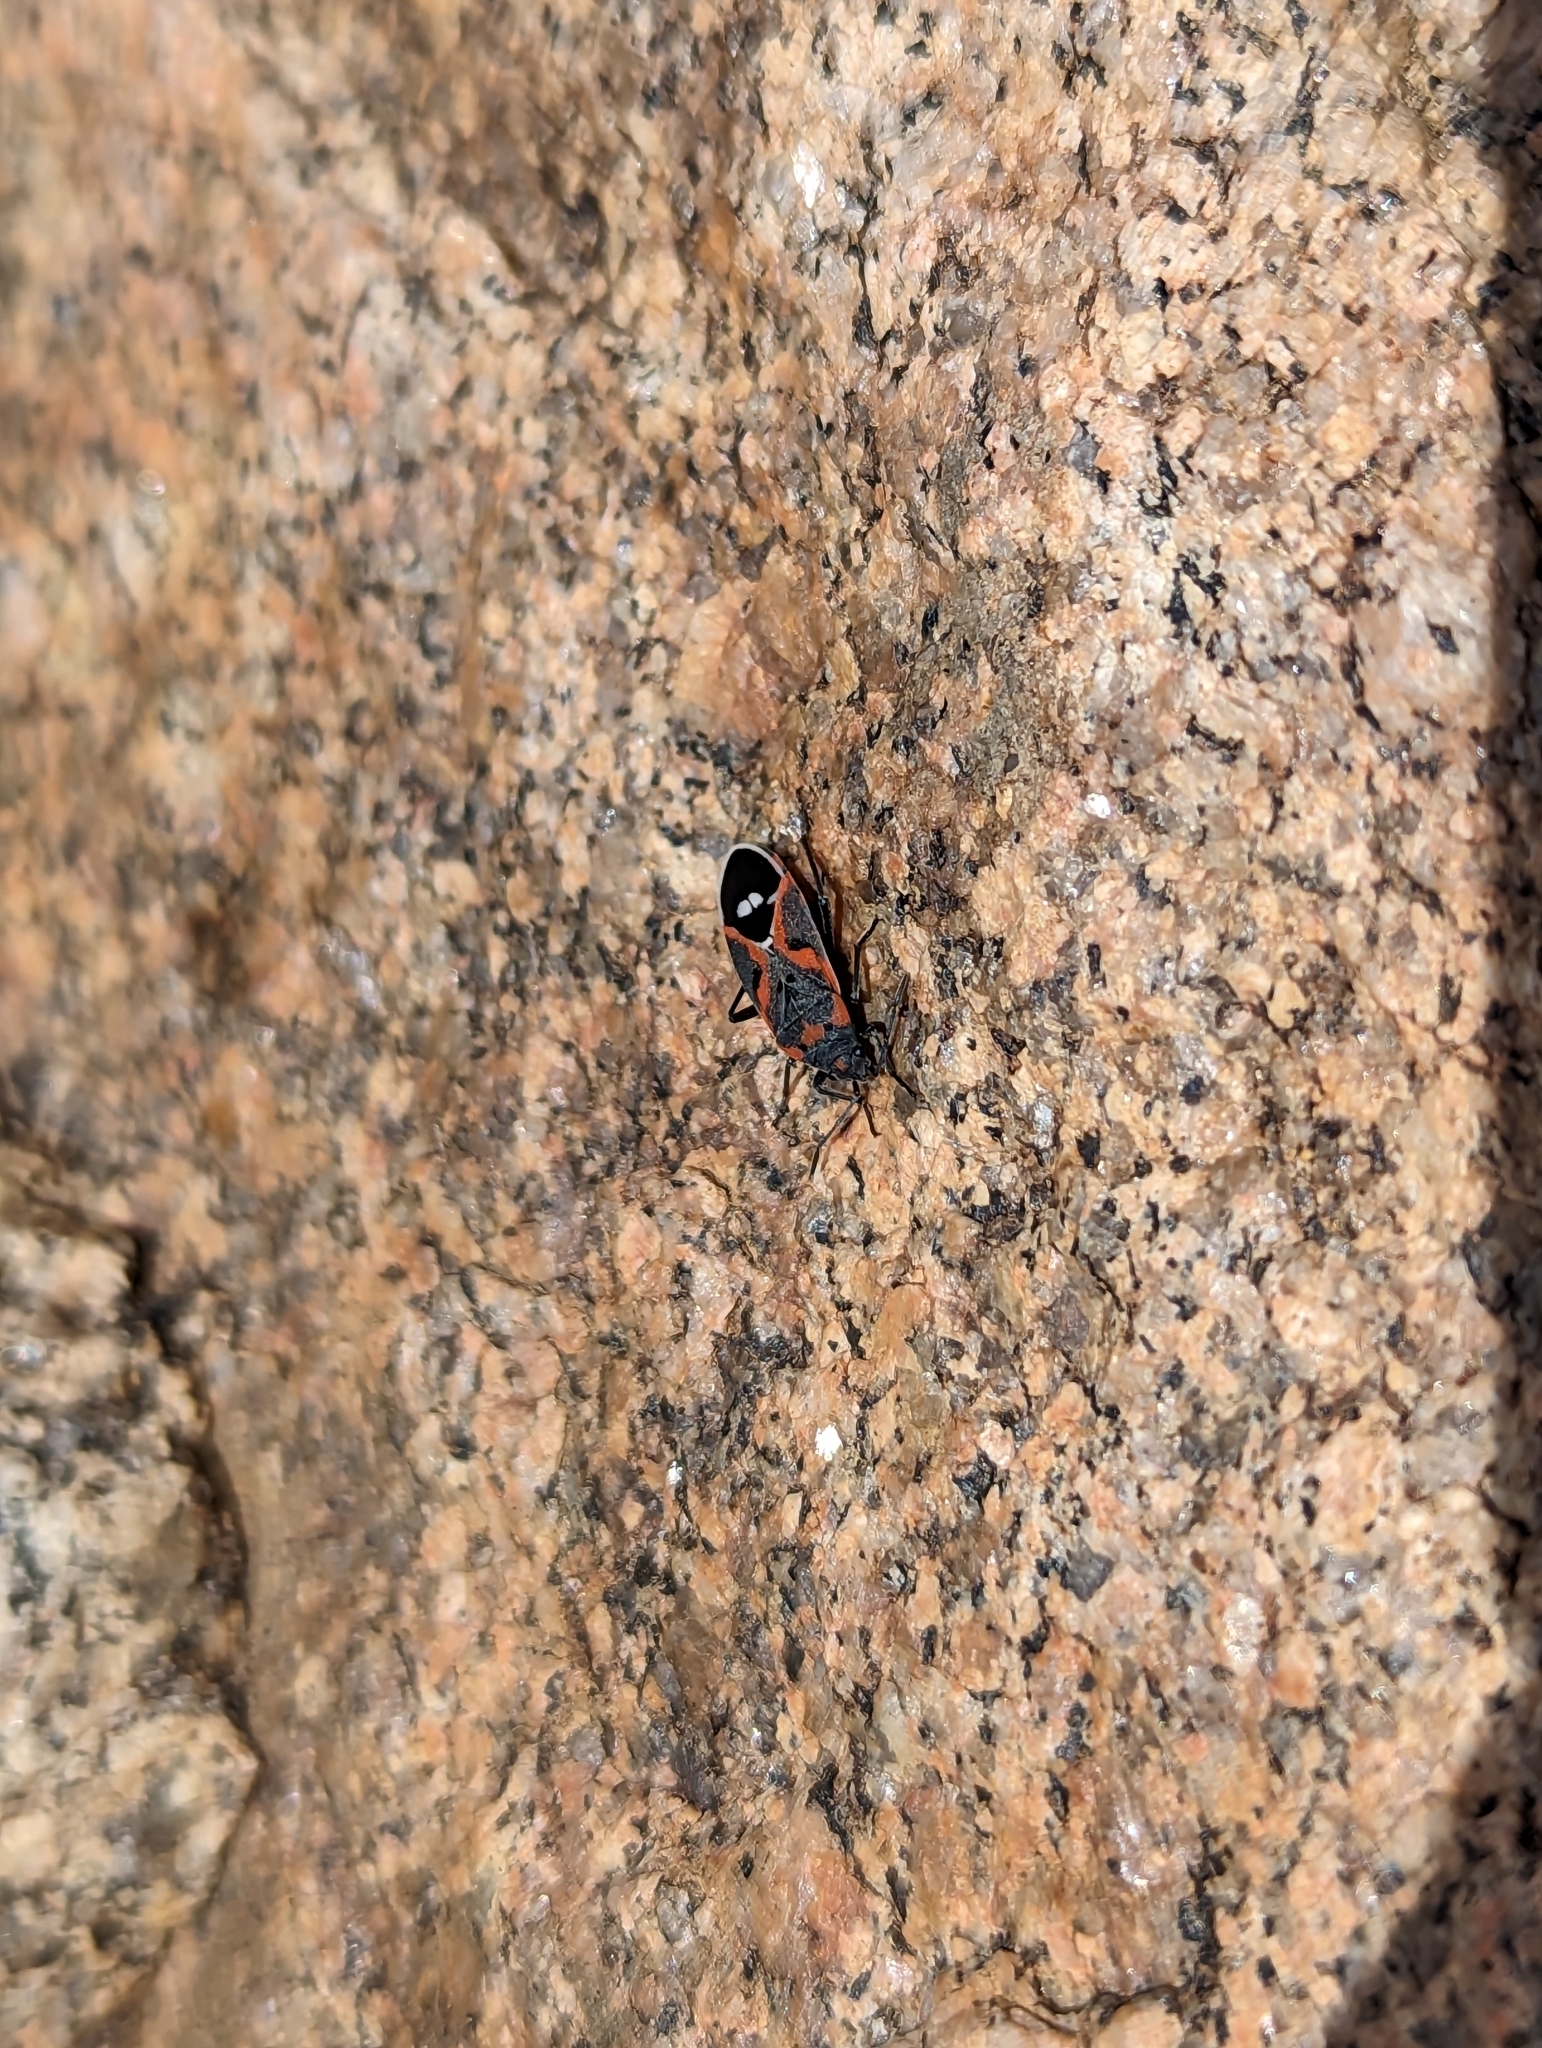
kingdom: Animalia
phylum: Arthropoda
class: Insecta
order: Hemiptera
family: Lygaeidae
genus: Lygaeus
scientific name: Lygaeus kalmii
